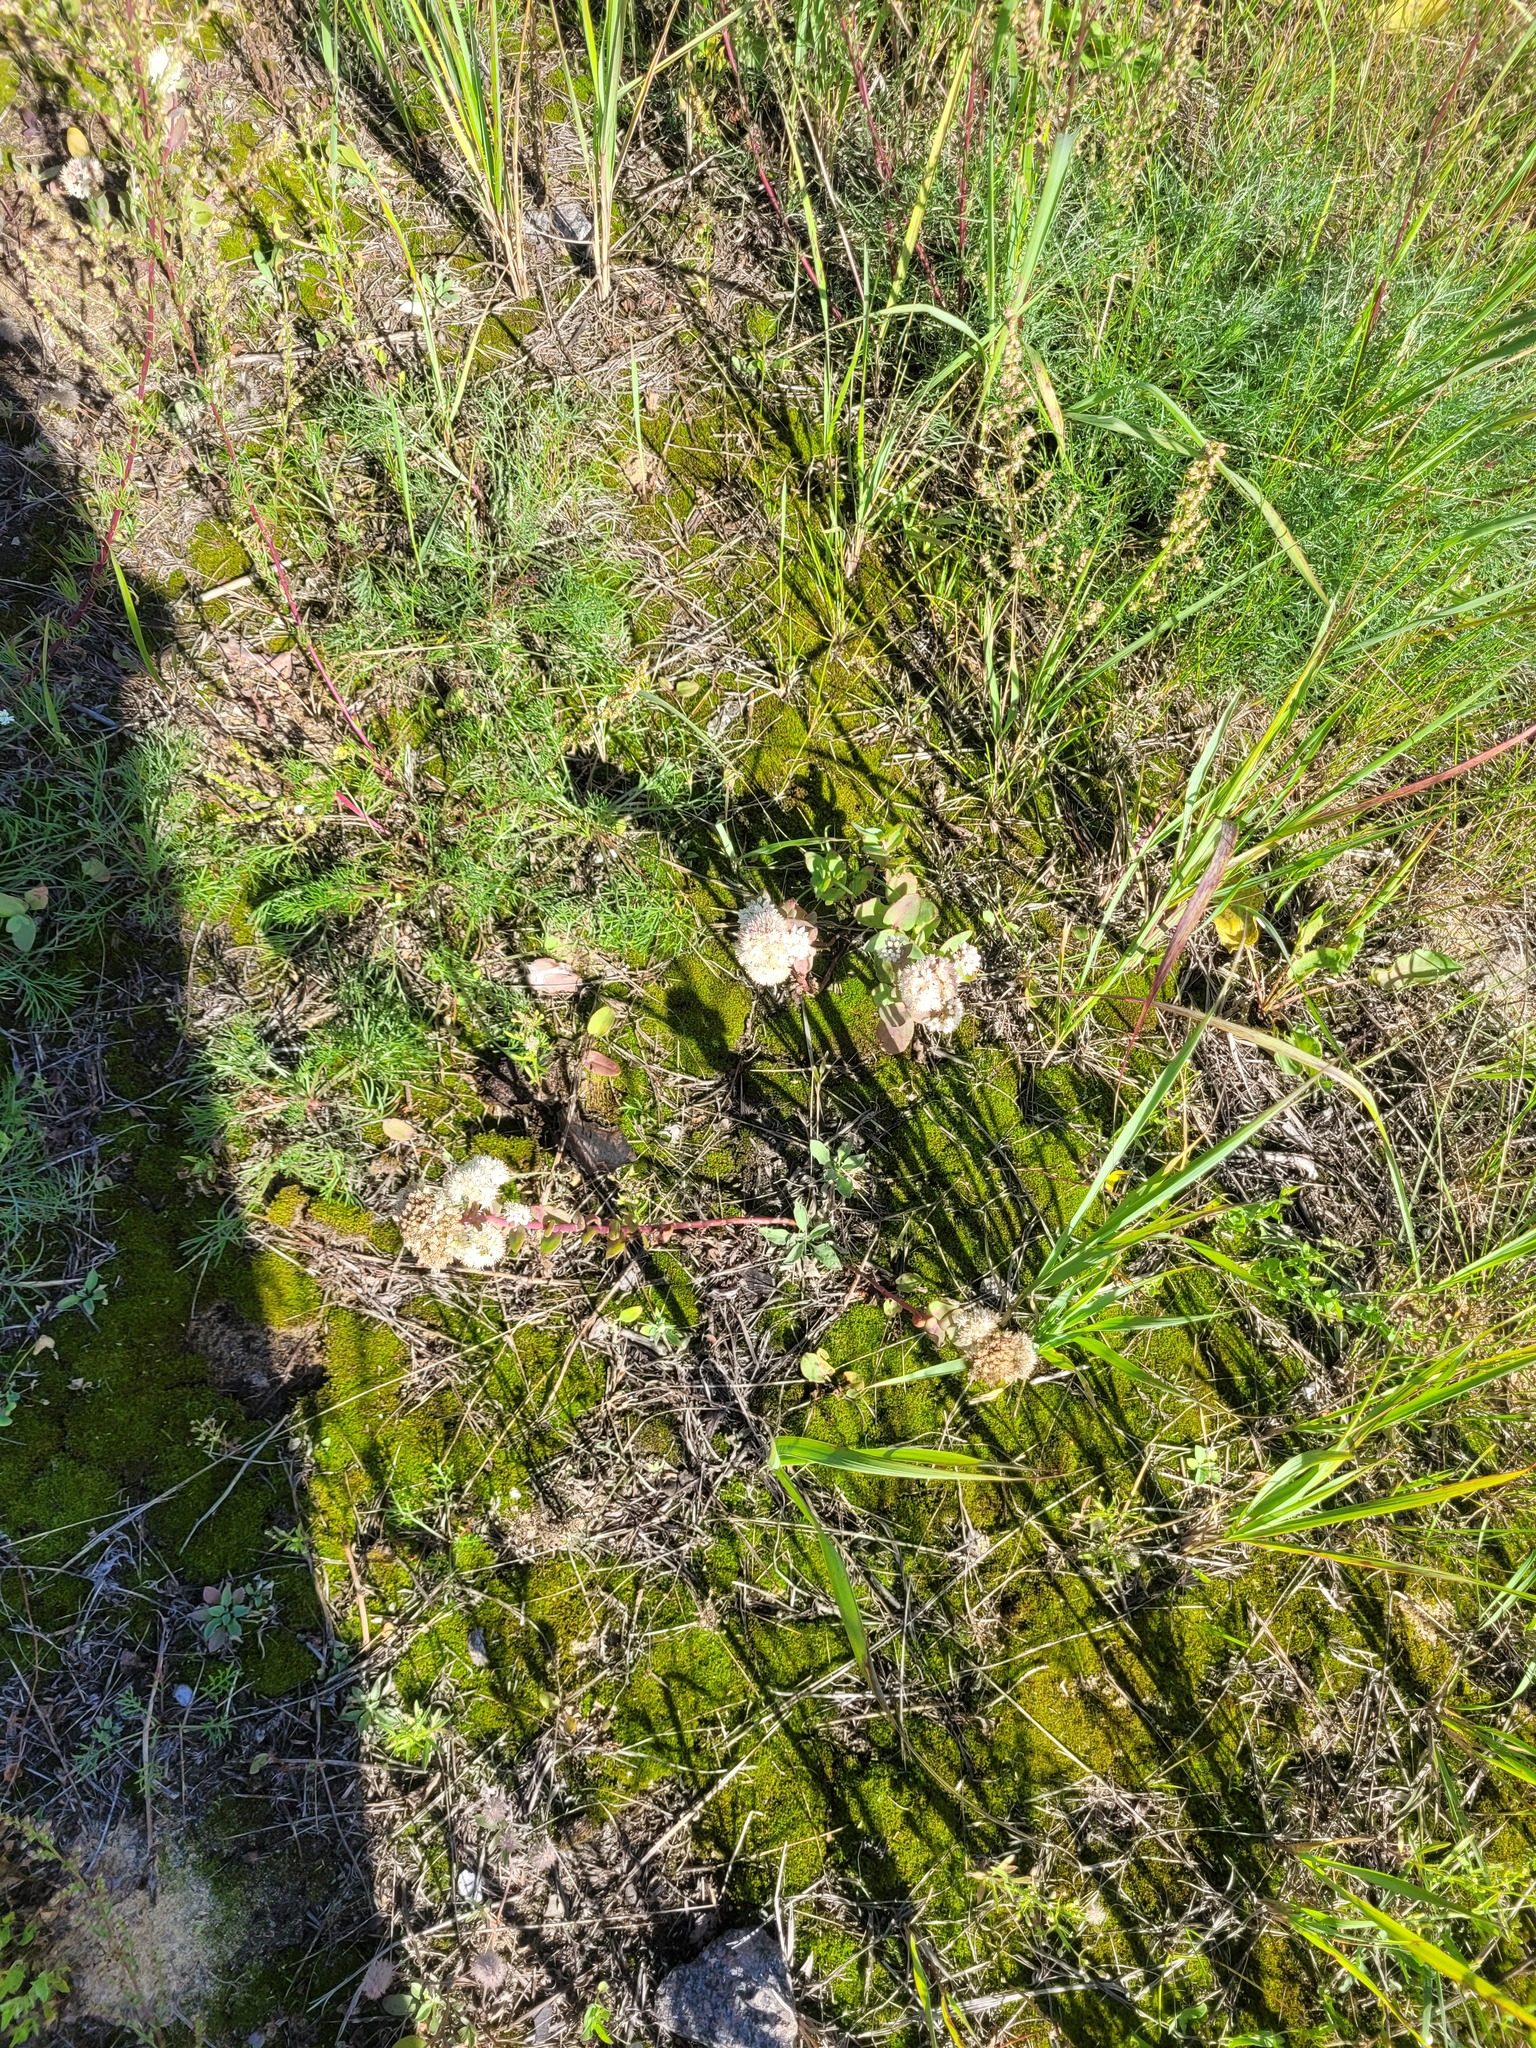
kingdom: Plantae
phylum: Tracheophyta
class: Magnoliopsida
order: Saxifragales
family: Crassulaceae
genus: Hylotelephium
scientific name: Hylotelephium maximum
